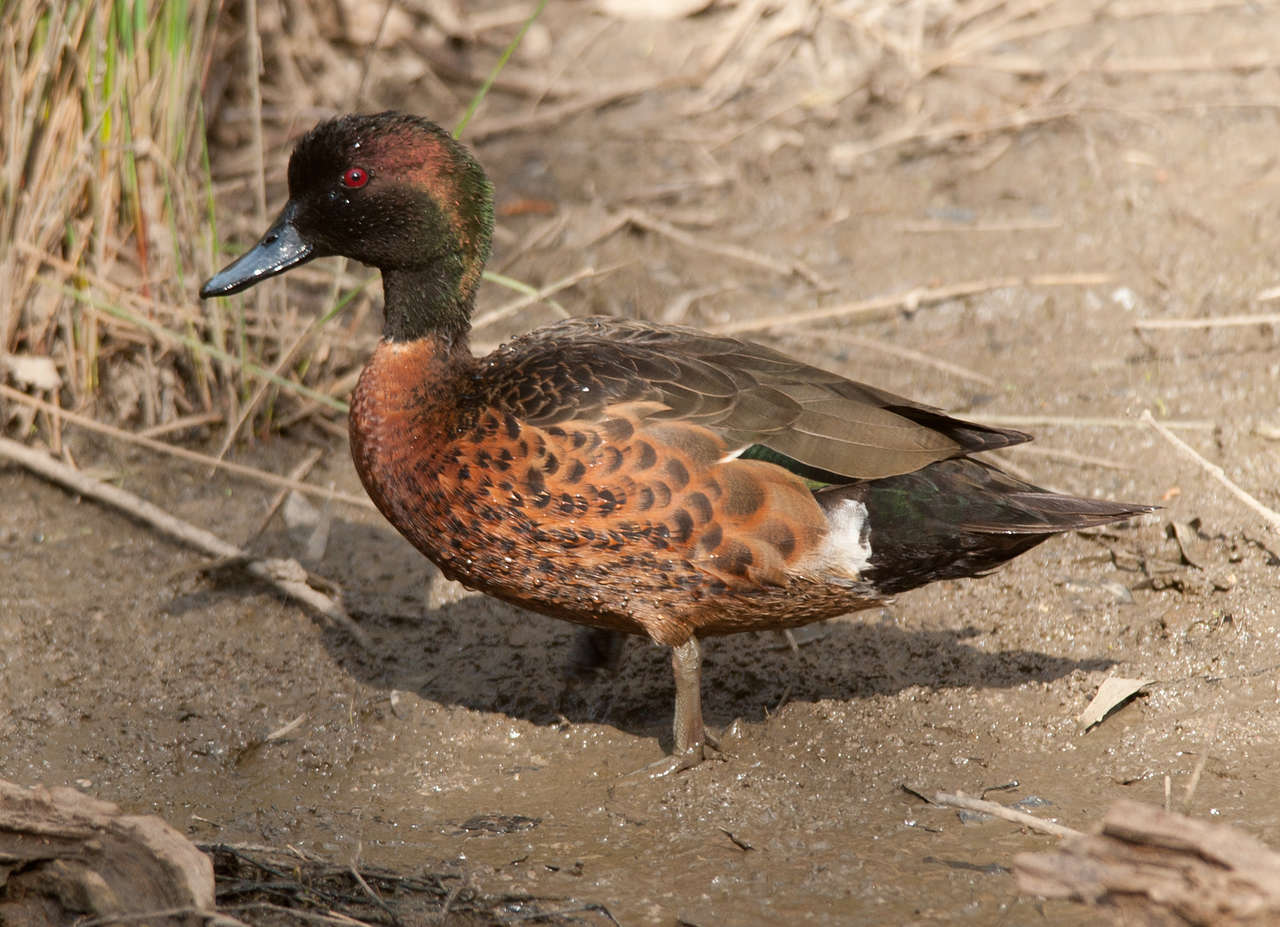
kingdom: Animalia
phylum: Chordata
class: Aves
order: Anseriformes
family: Anatidae
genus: Anas
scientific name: Anas castanea
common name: Chestnut teal
